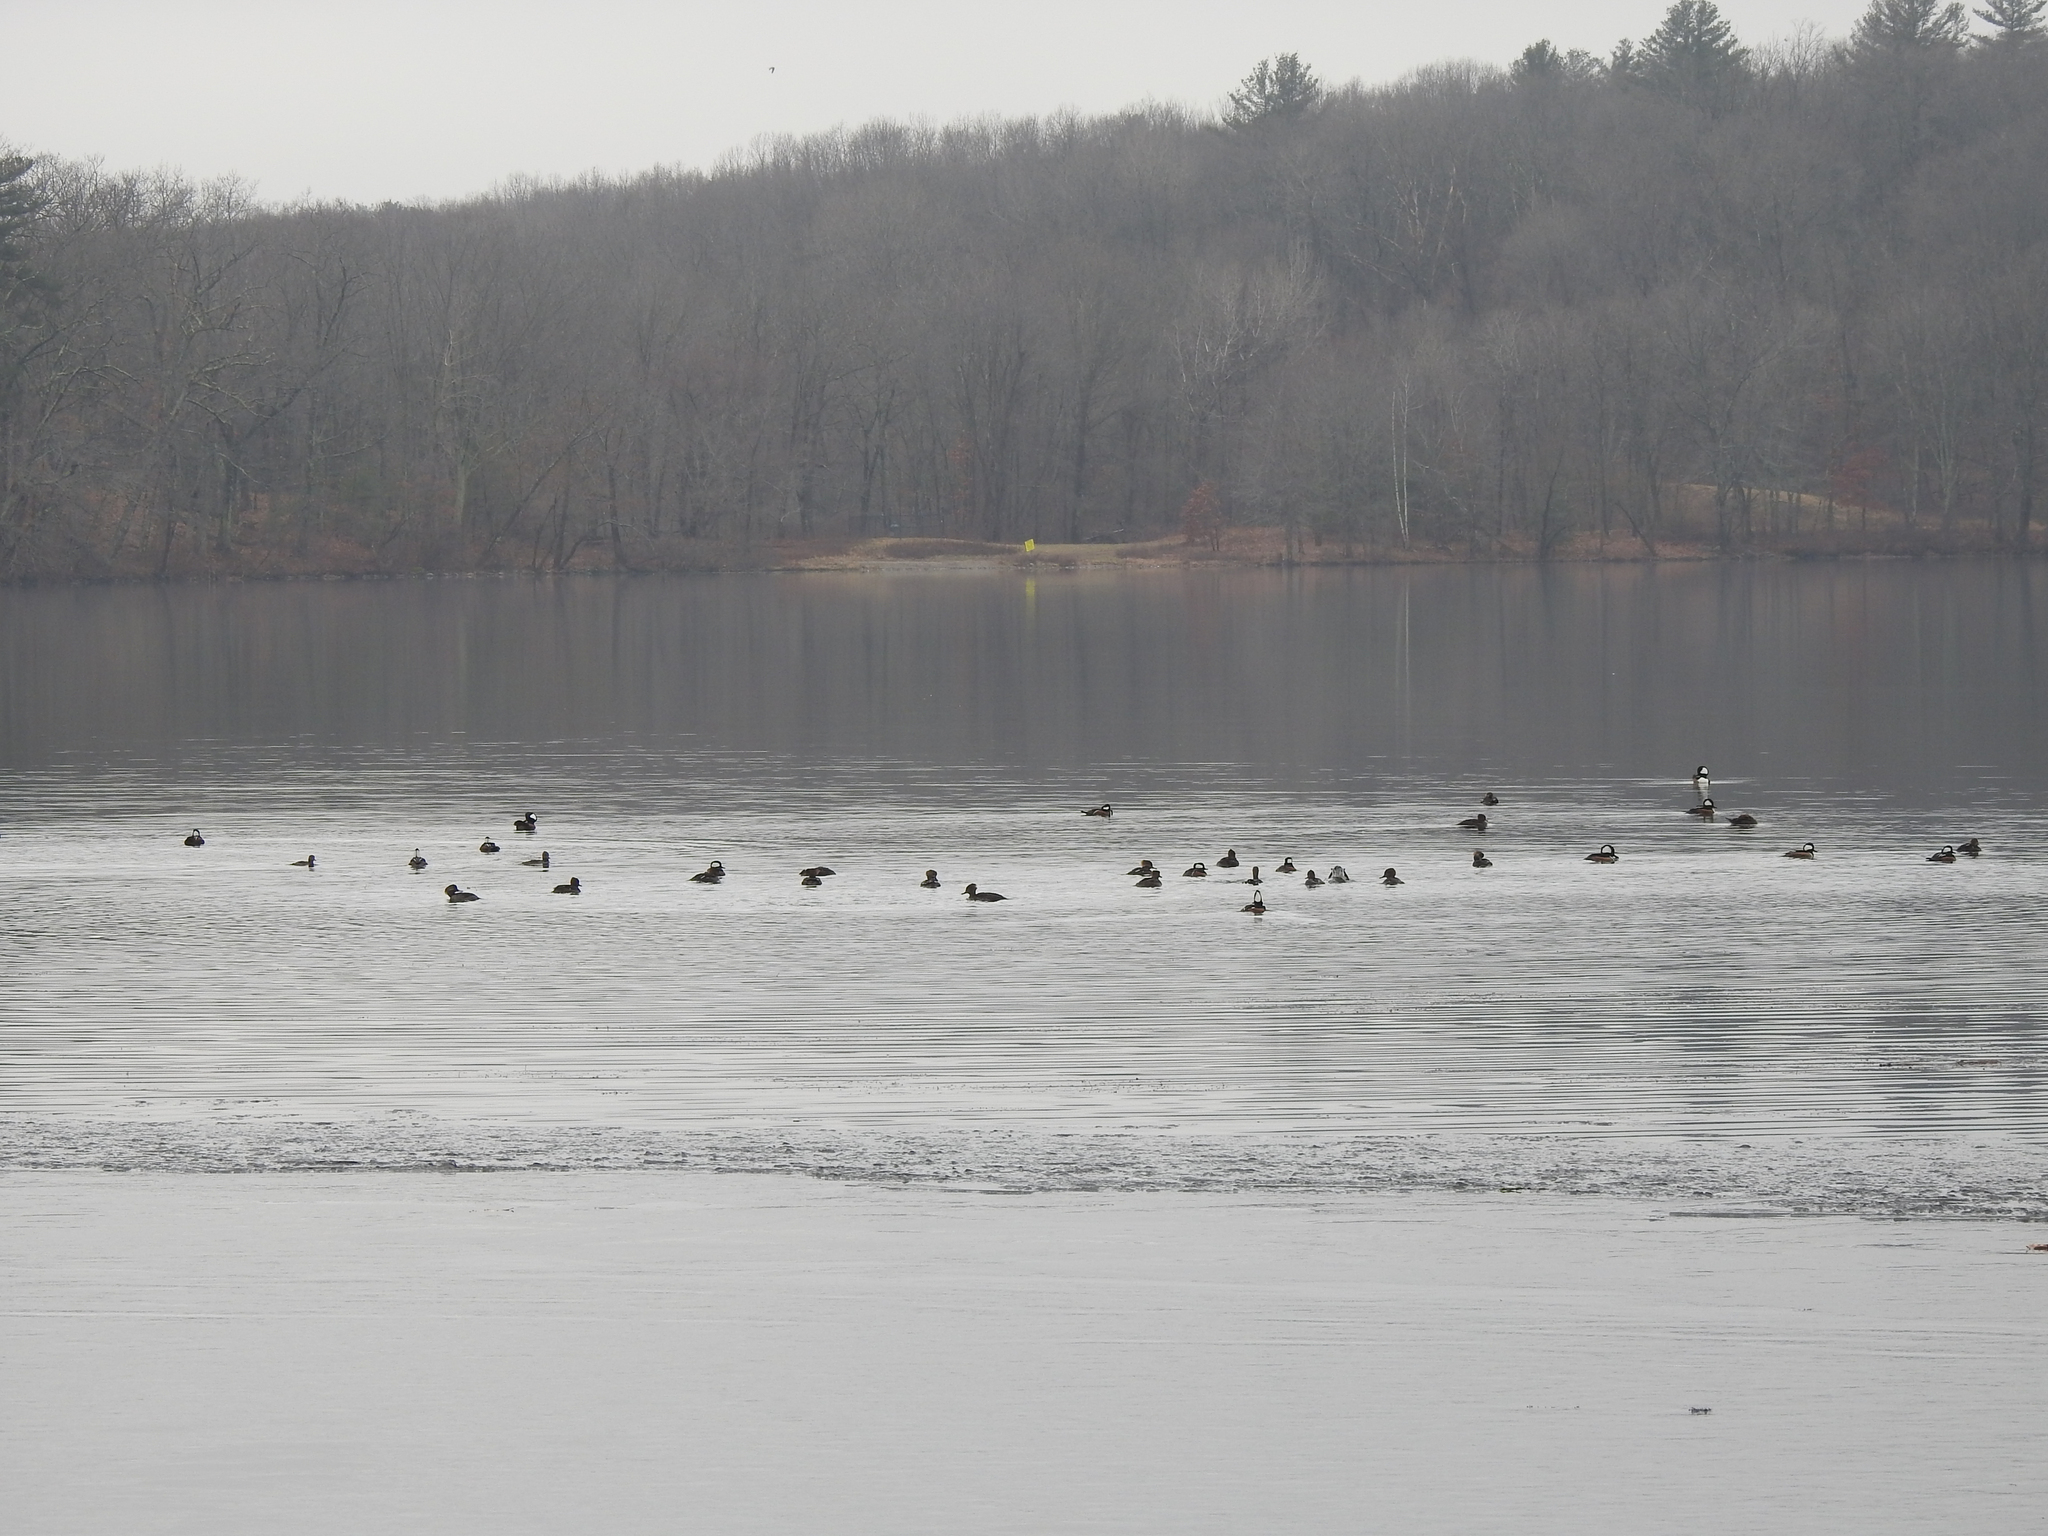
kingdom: Animalia
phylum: Chordata
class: Aves
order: Anseriformes
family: Anatidae
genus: Mergus
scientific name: Mergus merganser
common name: Common merganser
